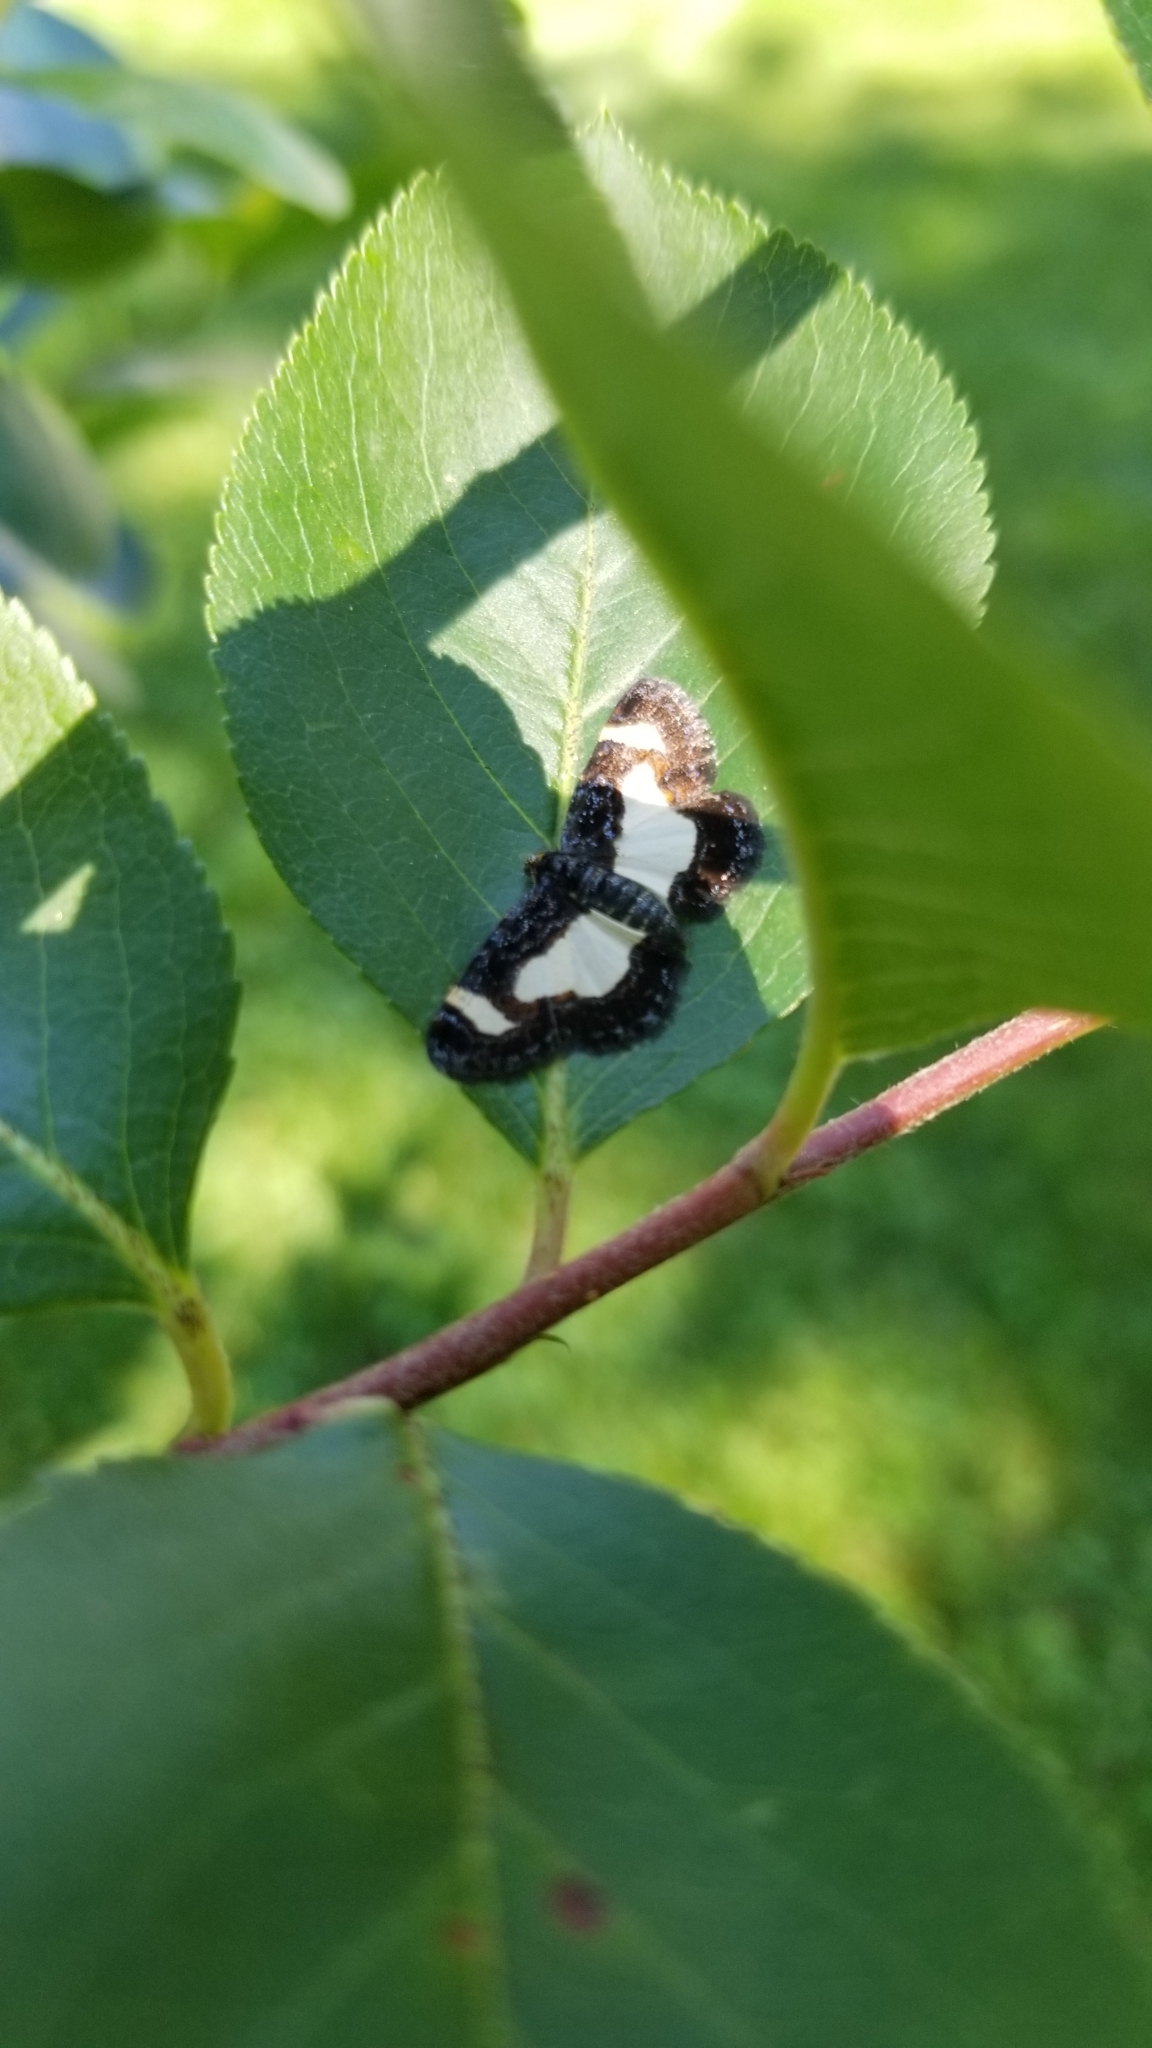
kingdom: Animalia
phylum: Arthropoda
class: Insecta
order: Lepidoptera
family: Geometridae
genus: Heliomata
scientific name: Heliomata cycladata
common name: Common spring moth
